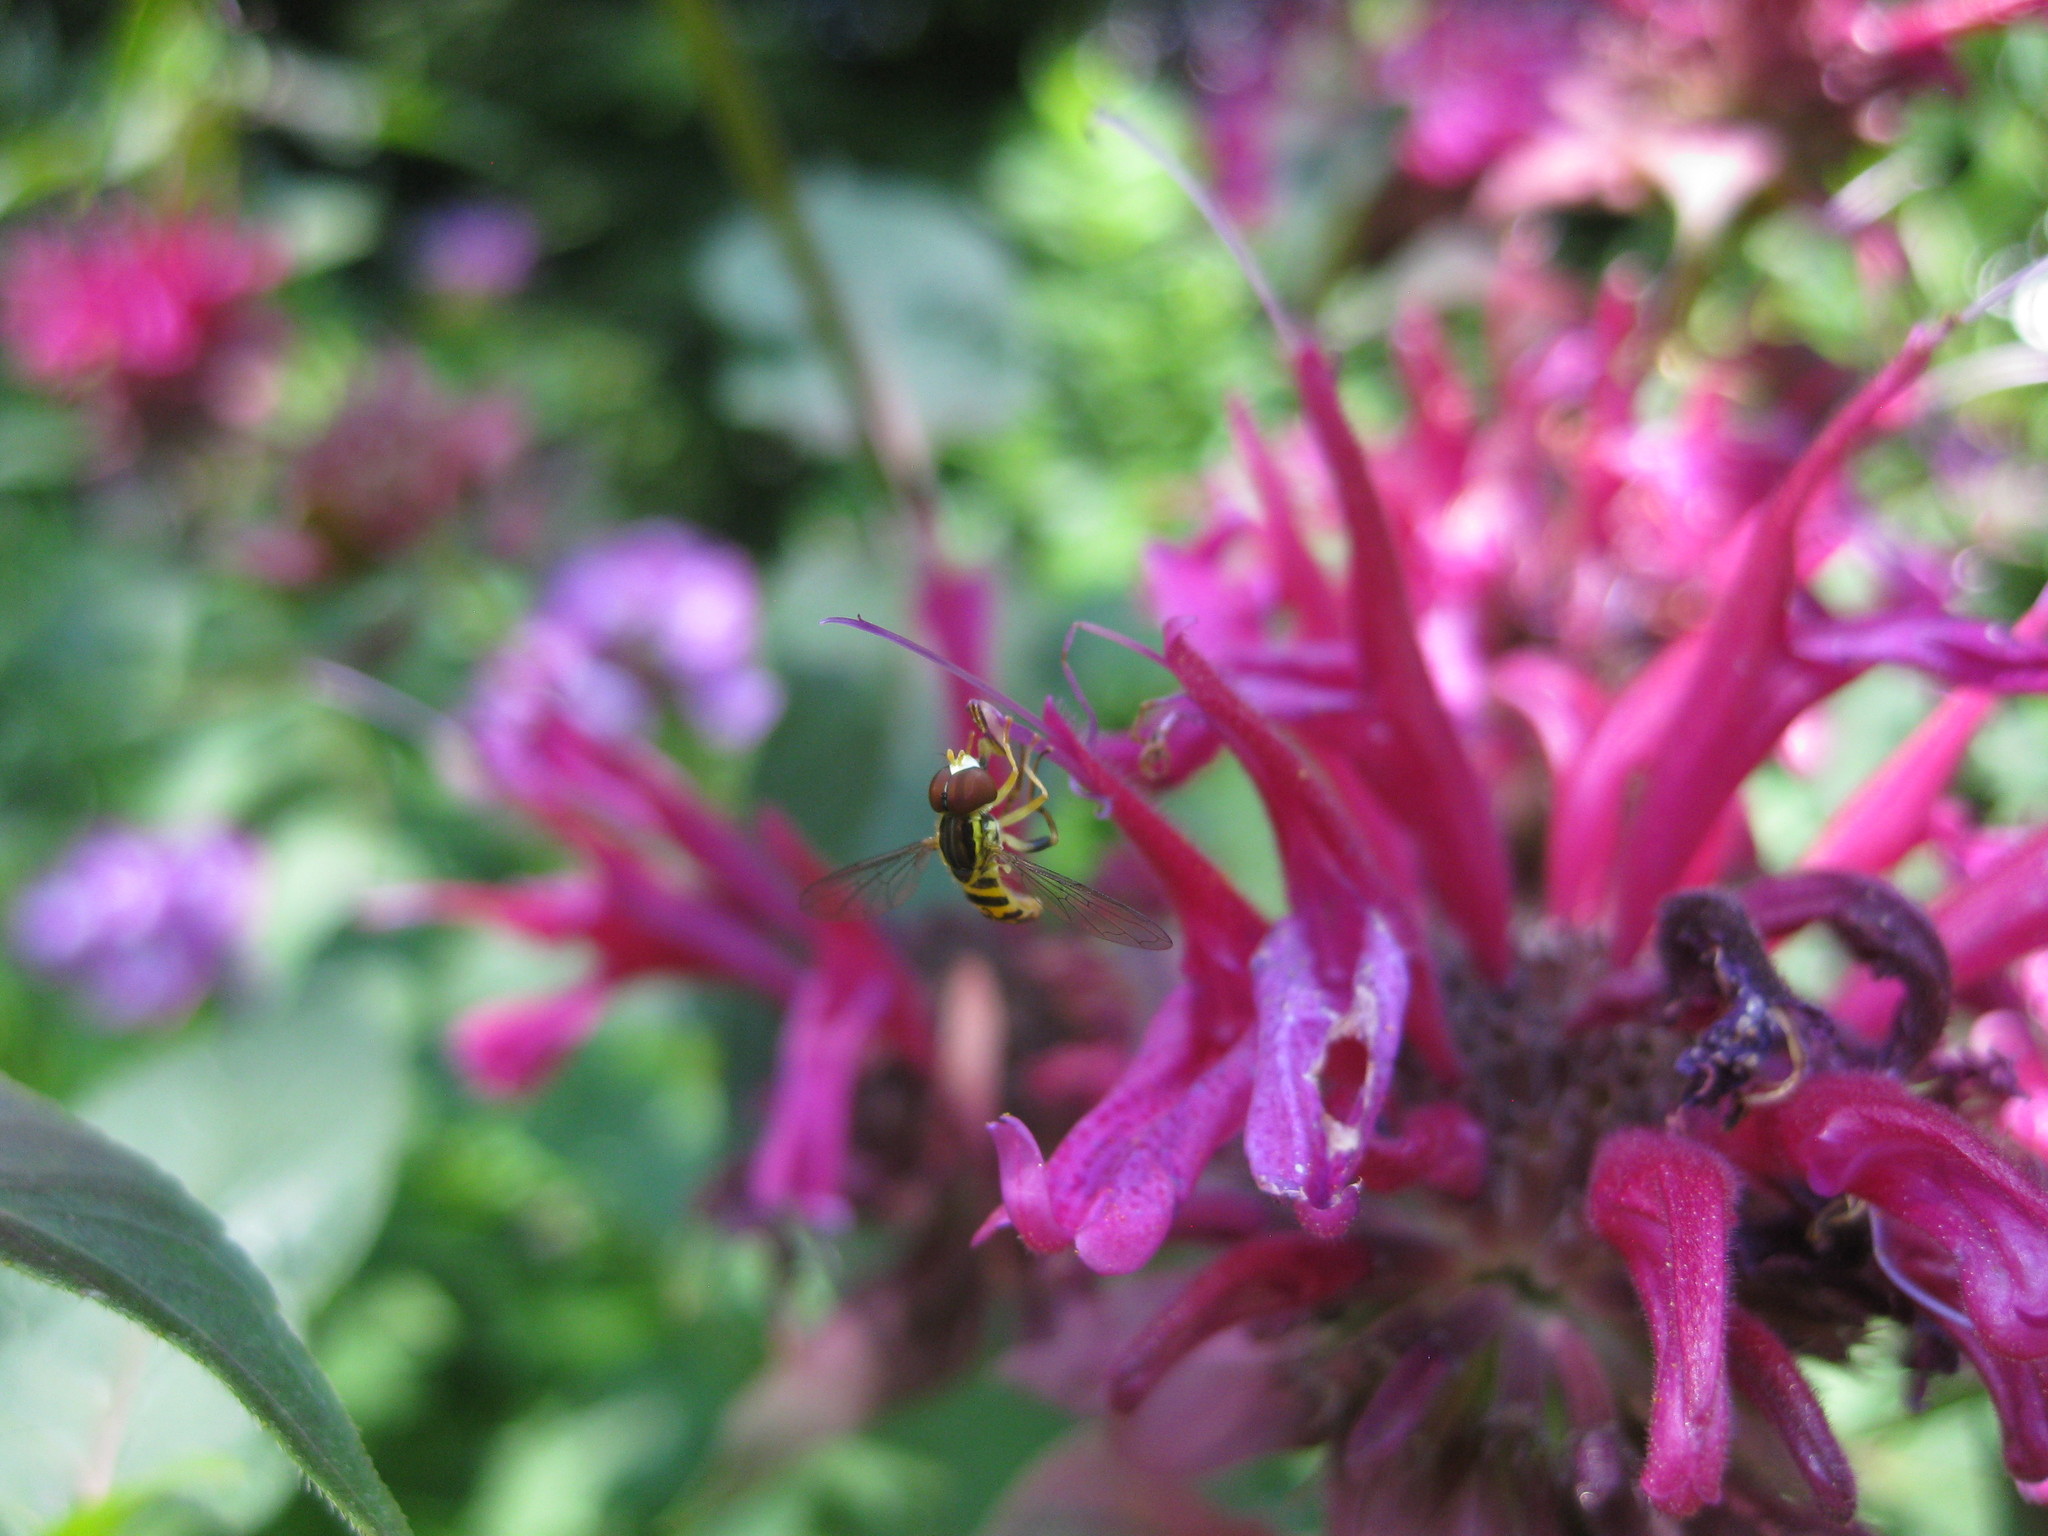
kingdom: Animalia
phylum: Arthropoda
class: Insecta
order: Diptera
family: Syrphidae
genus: Toxomerus
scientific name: Toxomerus geminatus
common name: Eastern calligrapher
